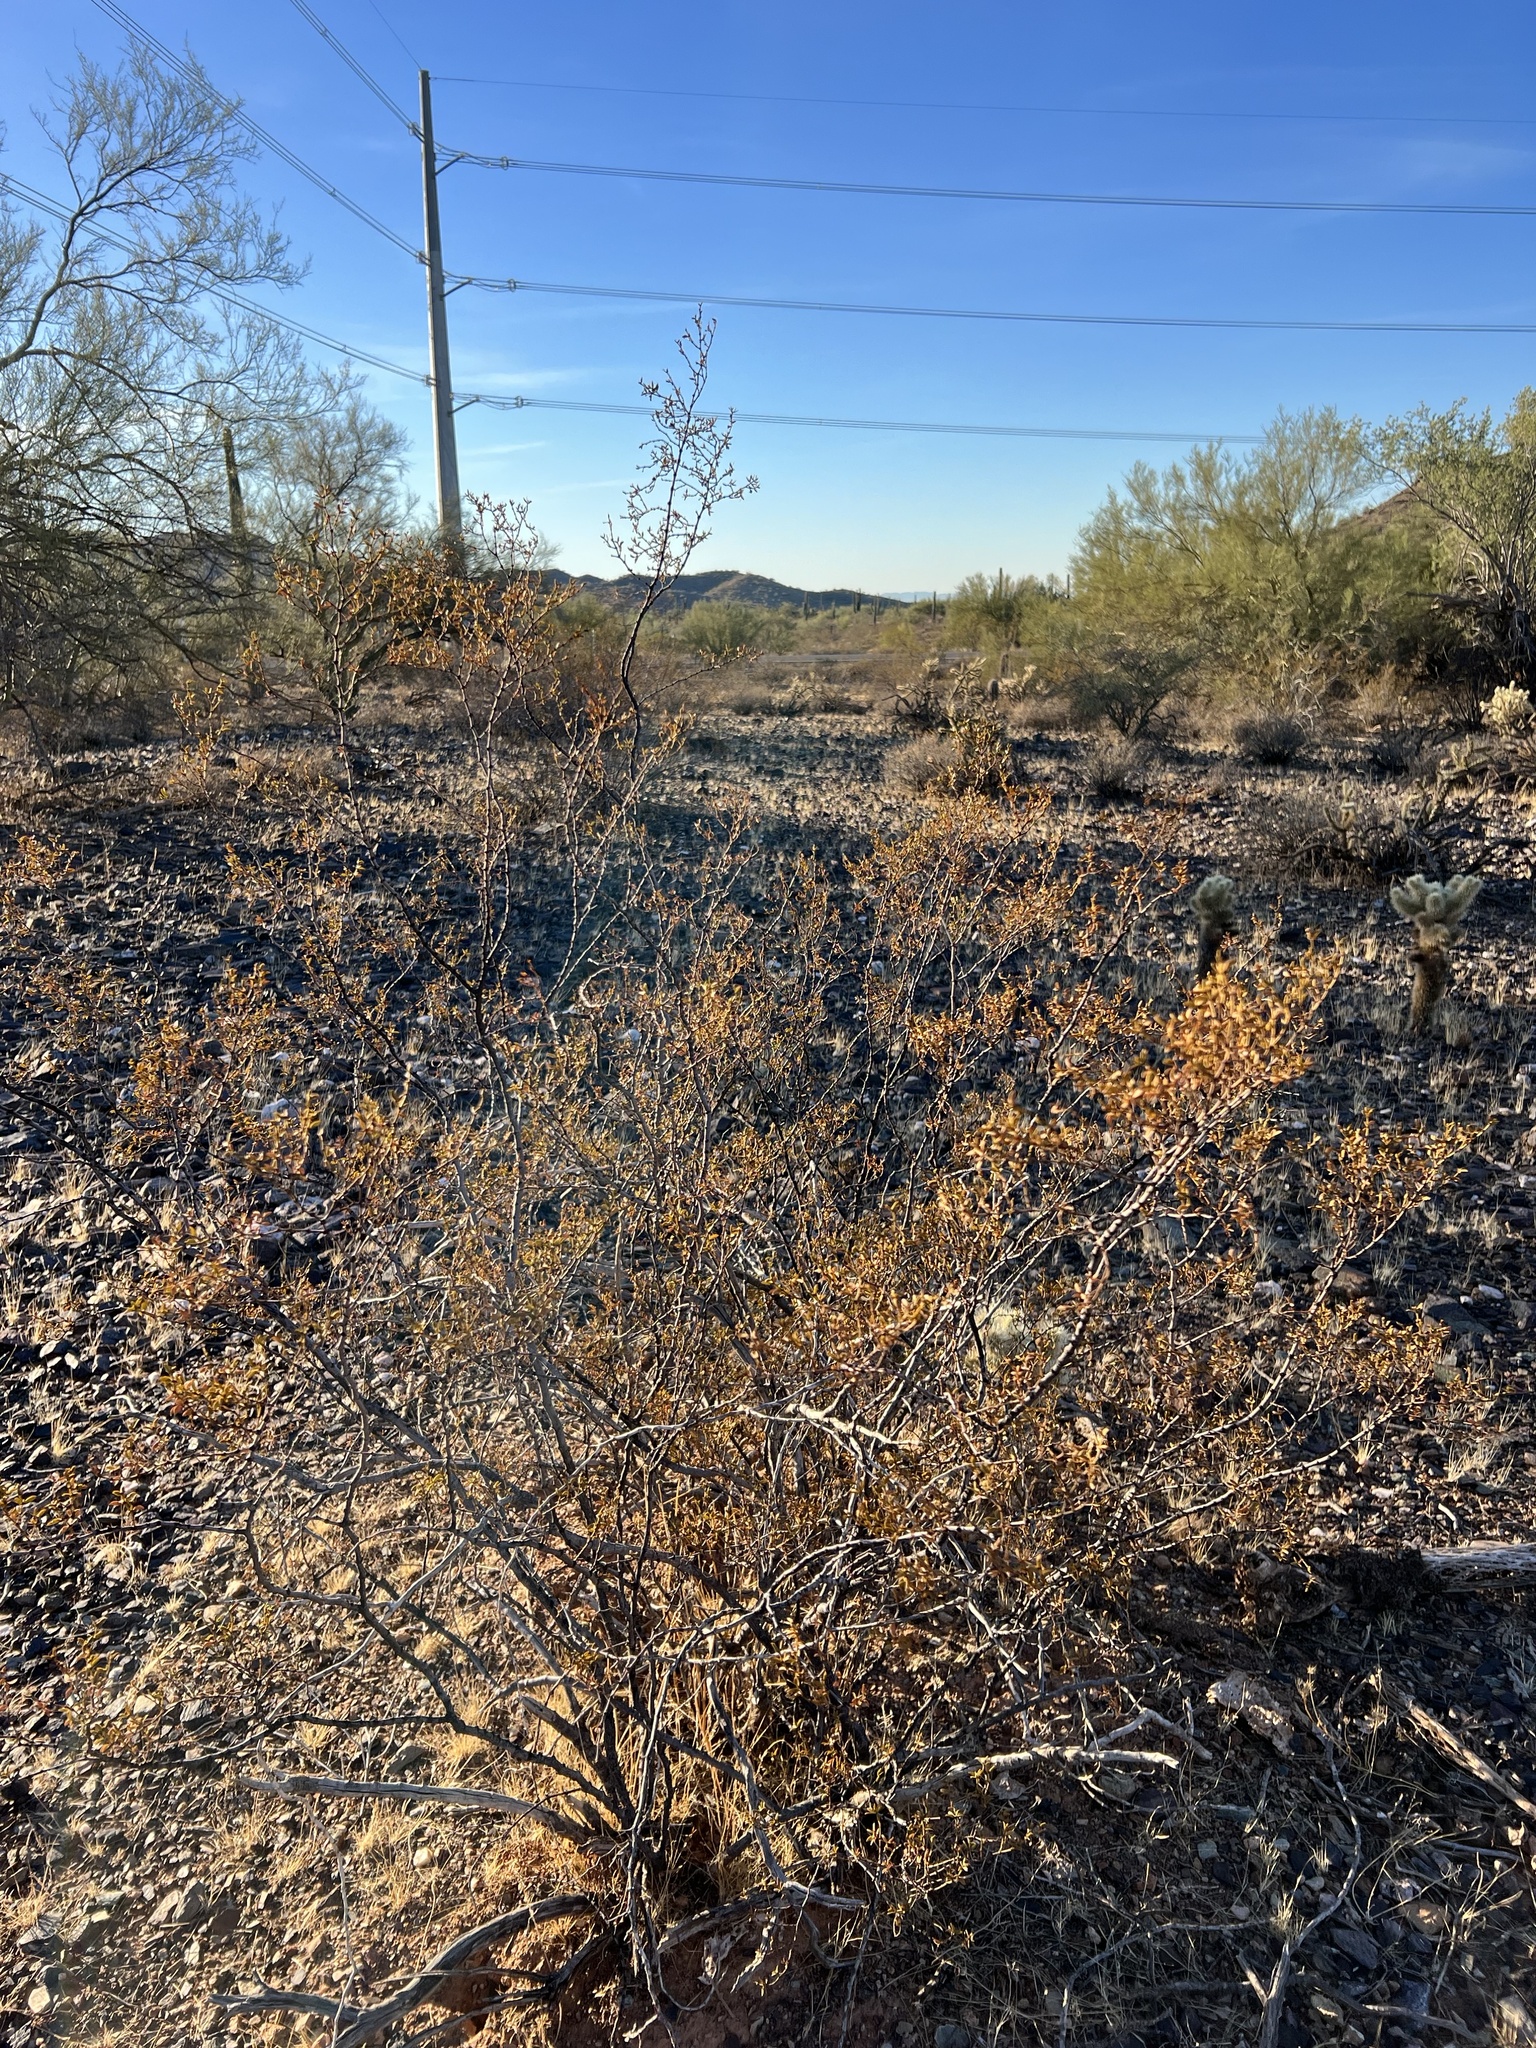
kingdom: Plantae
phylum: Tracheophyta
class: Magnoliopsida
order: Zygophyllales
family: Zygophyllaceae
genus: Larrea
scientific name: Larrea tridentata
